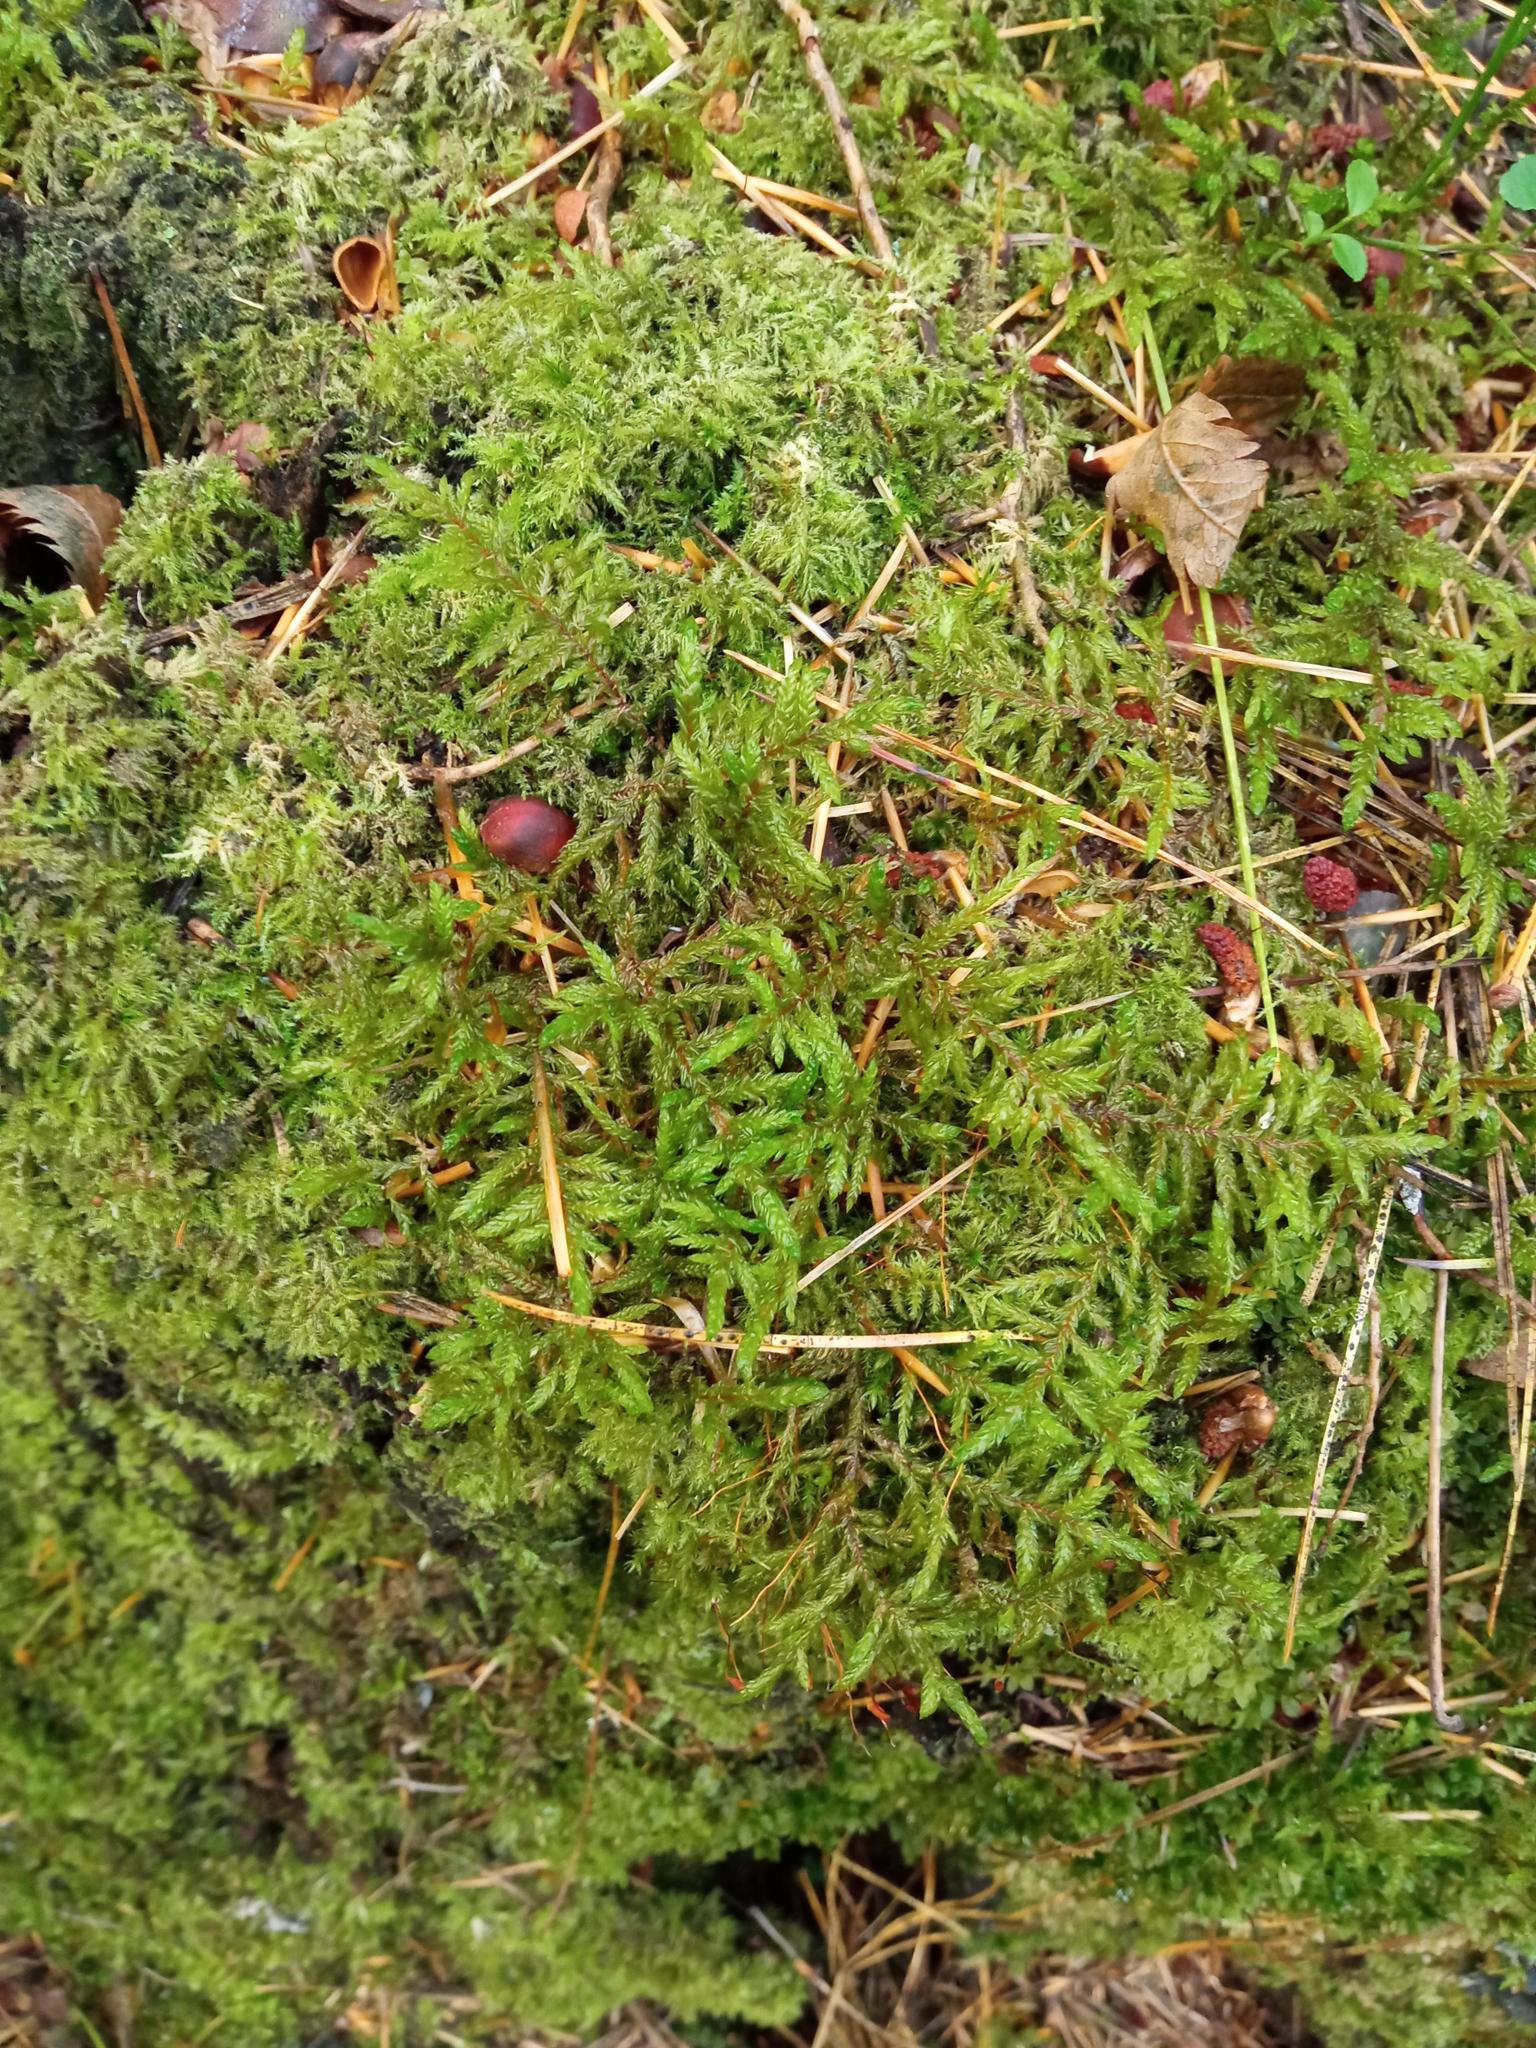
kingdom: Plantae
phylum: Bryophyta
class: Bryopsida
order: Hypnales
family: Hylocomiaceae
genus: Pleurozium
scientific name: Pleurozium schreberi
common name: Red-stemmed feather moss
